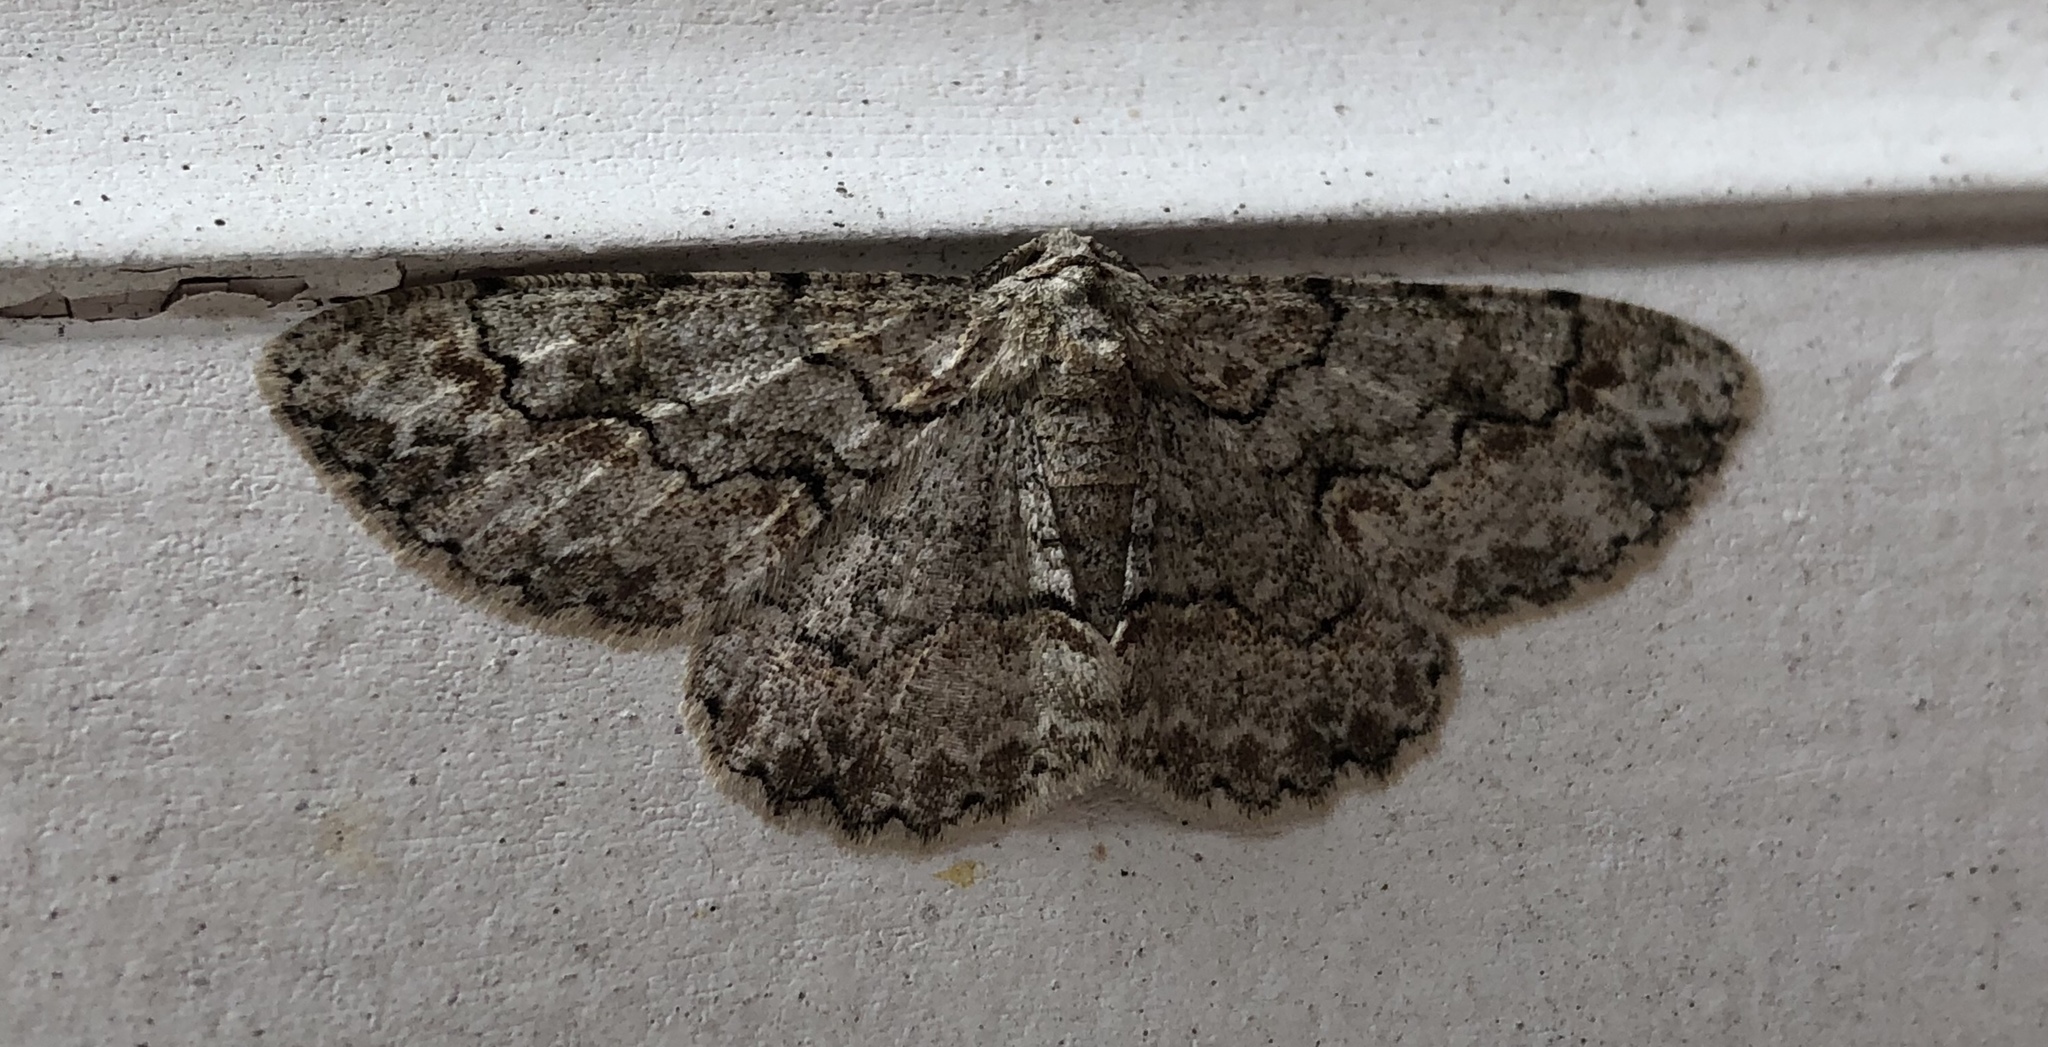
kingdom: Animalia
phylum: Arthropoda
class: Insecta
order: Lepidoptera
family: Geometridae
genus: Iridopsis
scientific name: Iridopsis defectaria
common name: Brown-shaded gray
